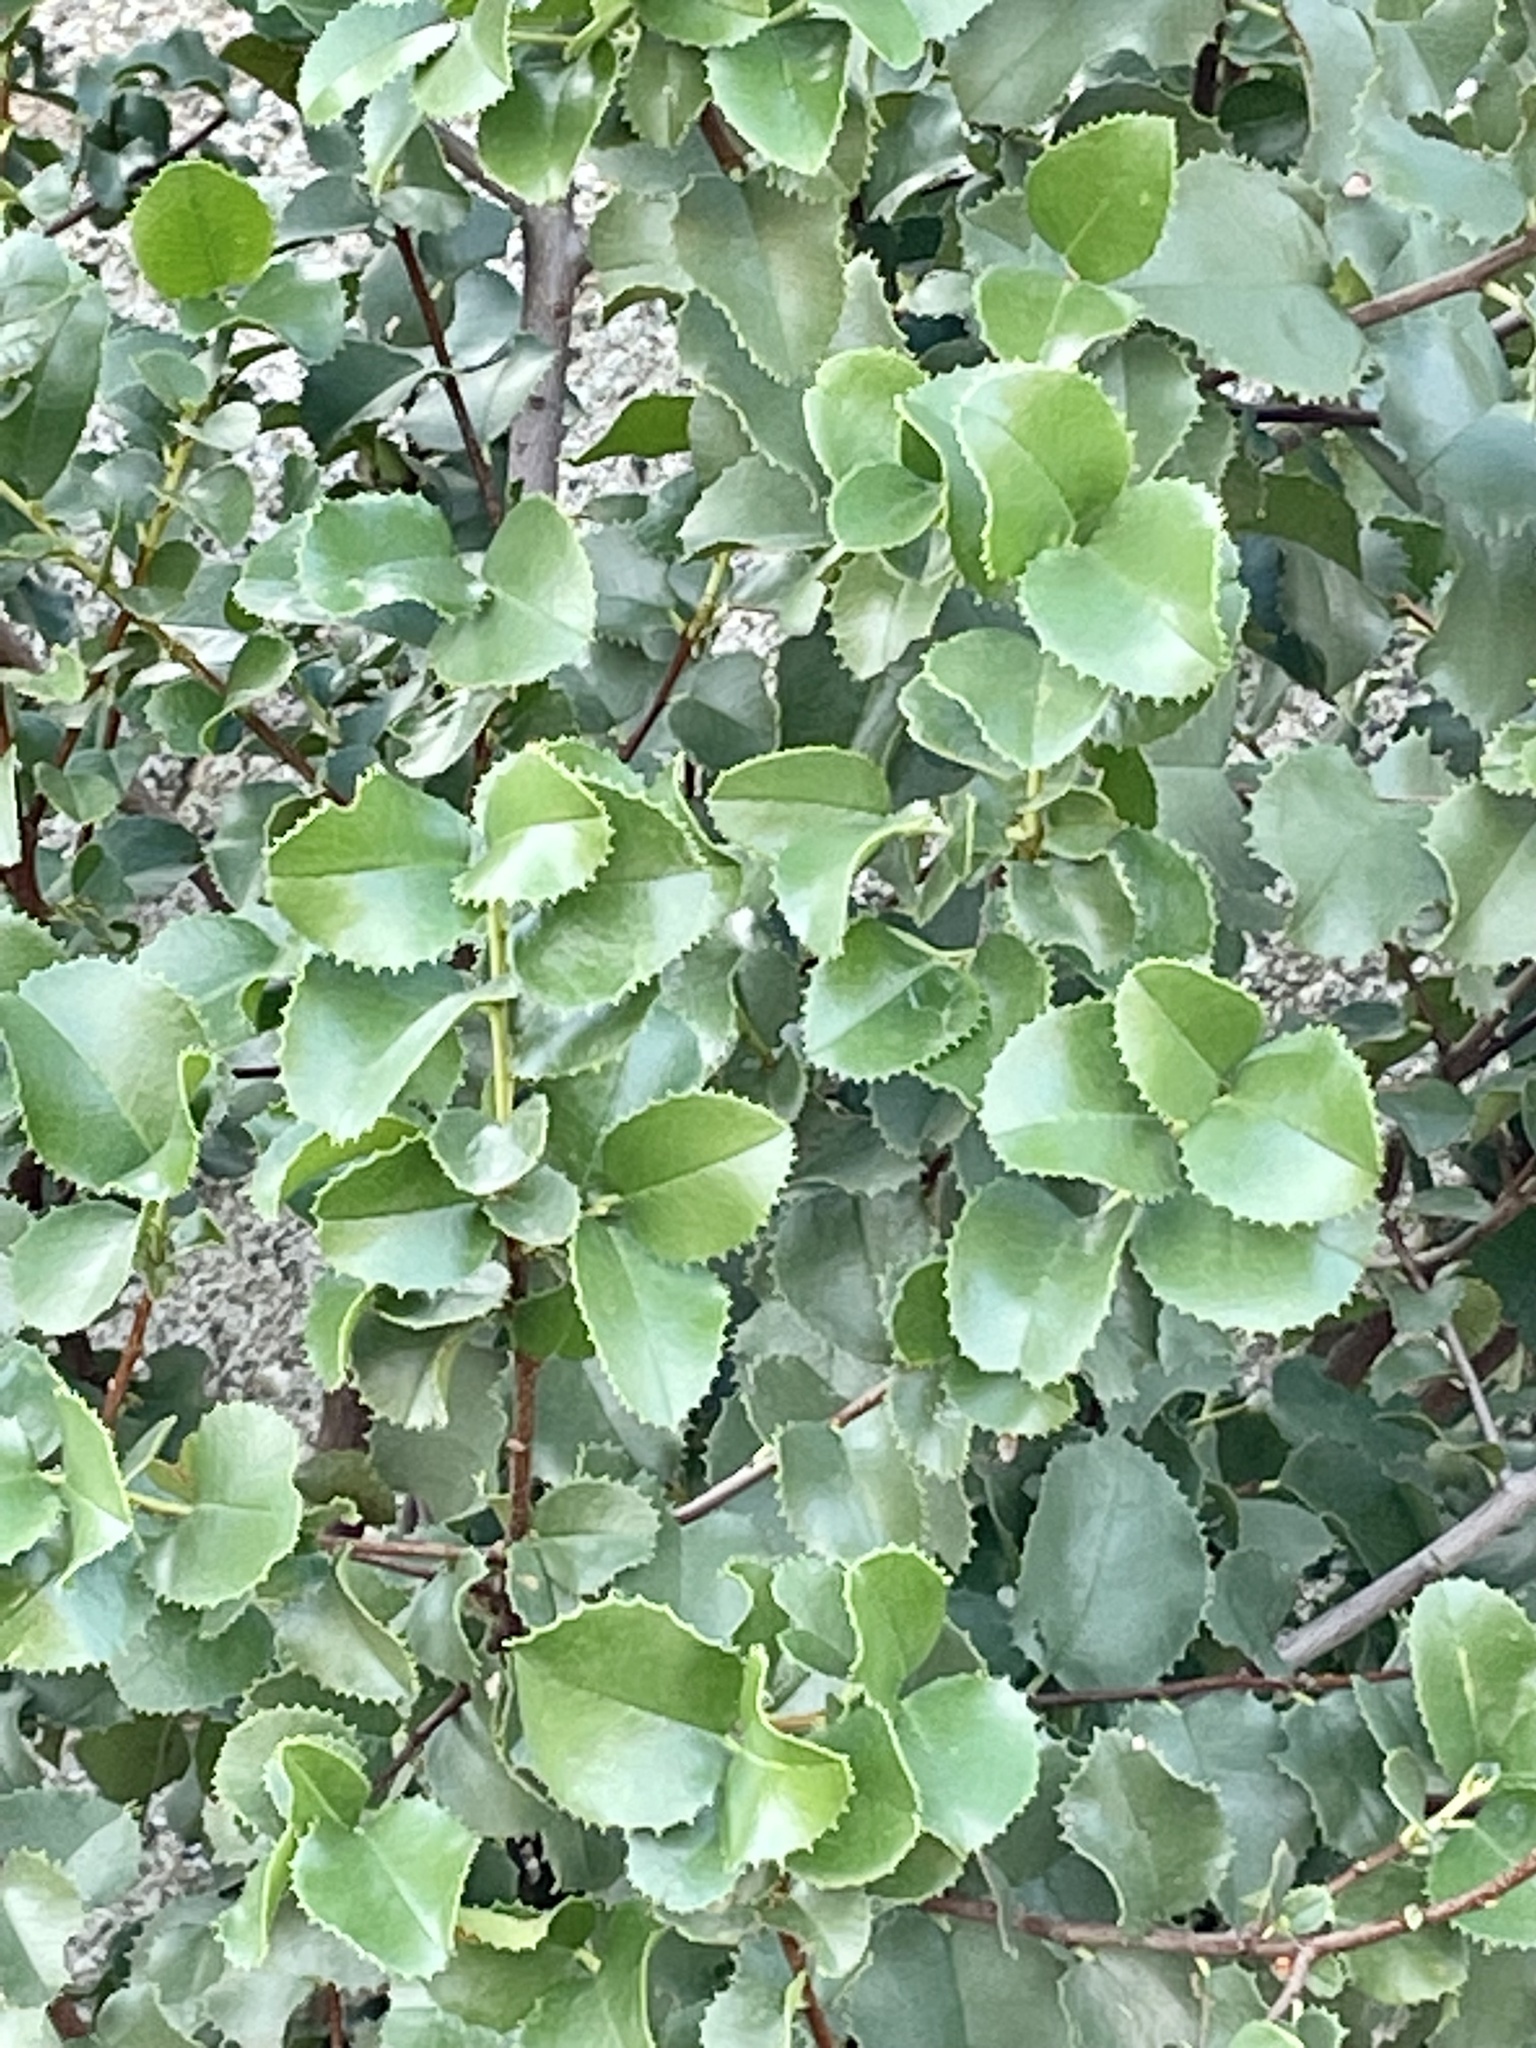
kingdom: Plantae
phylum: Tracheophyta
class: Magnoliopsida
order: Rosales
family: Rosaceae
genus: Prunus
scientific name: Prunus ilicifolia
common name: Hollyleaf cherry
